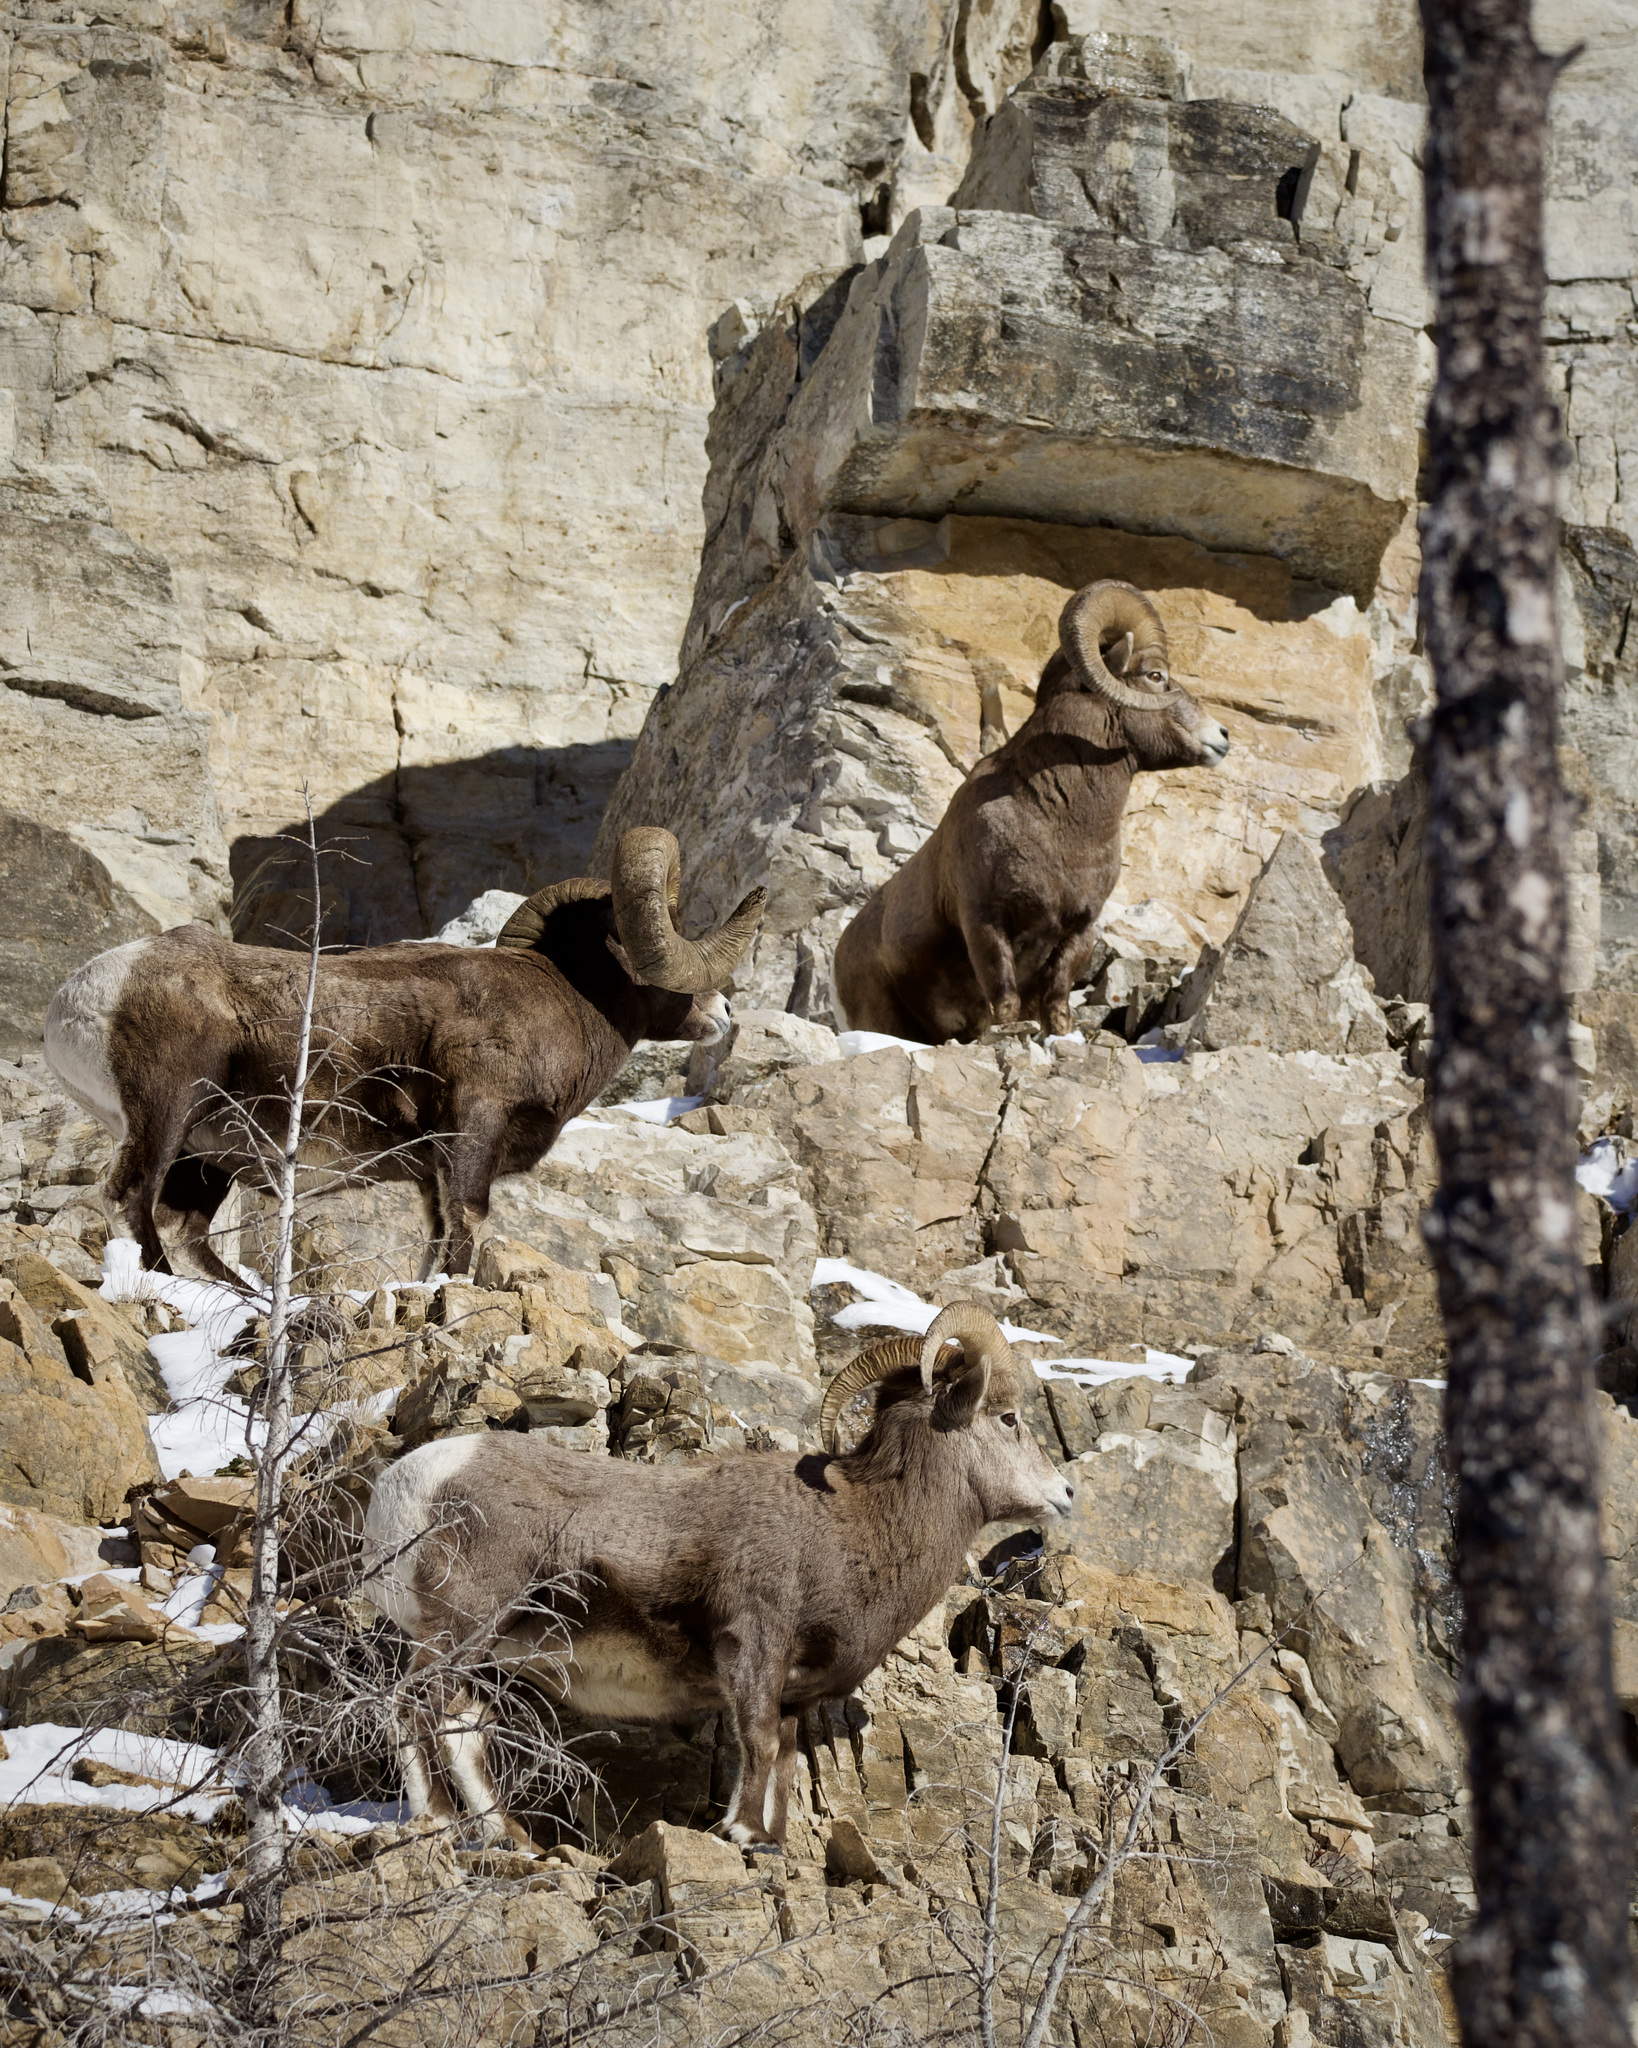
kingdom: Animalia
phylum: Chordata
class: Mammalia
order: Artiodactyla
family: Bovidae
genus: Ovis
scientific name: Ovis canadensis
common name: Bighorn sheep
